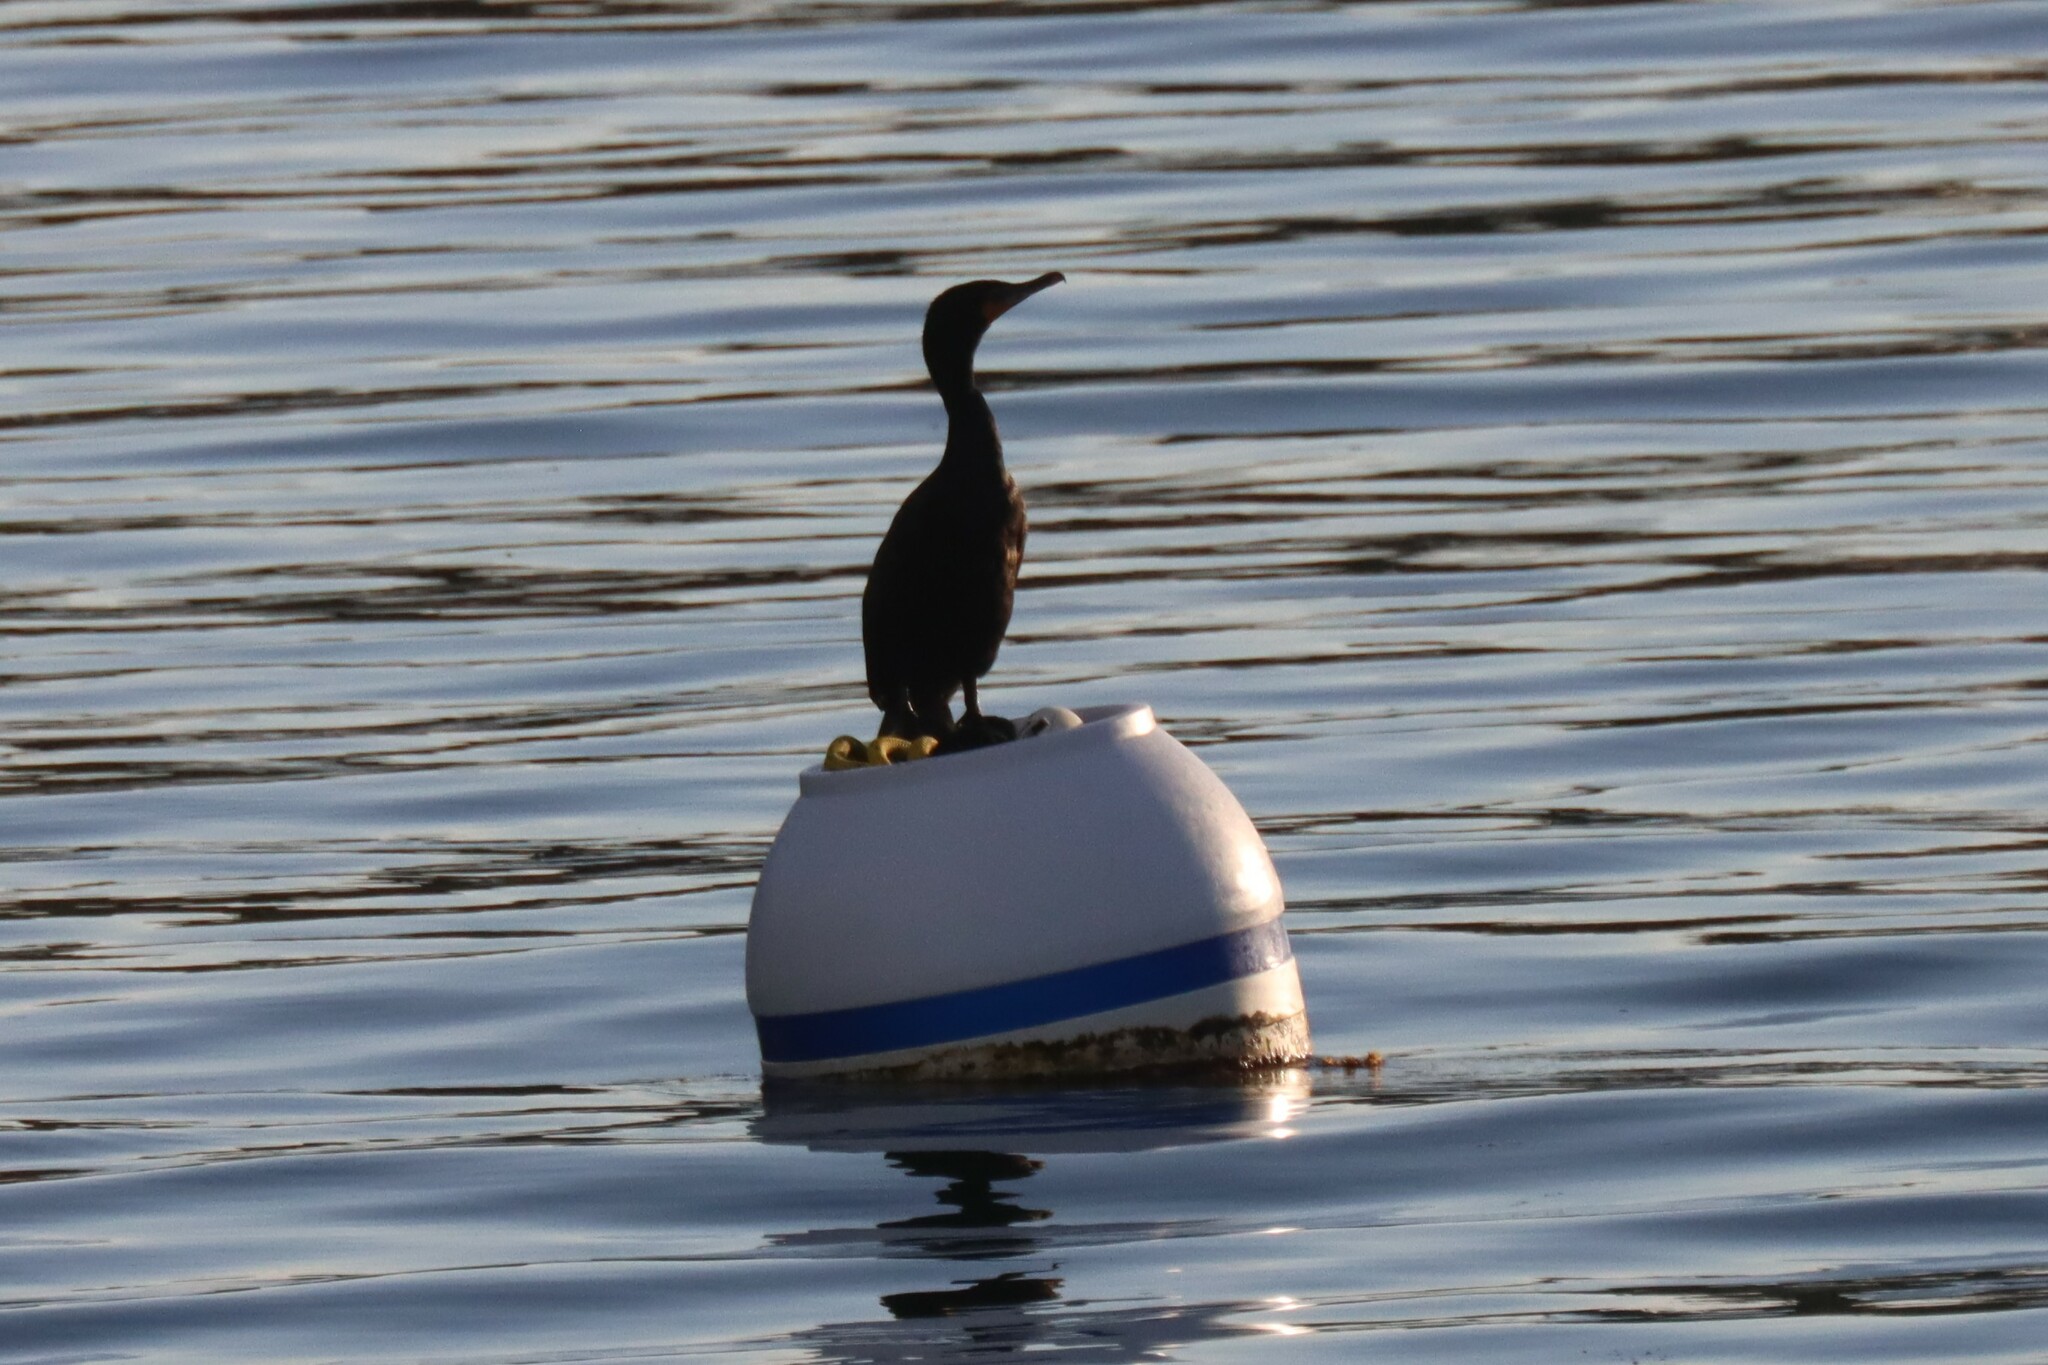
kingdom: Animalia
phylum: Chordata
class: Aves
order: Suliformes
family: Phalacrocoracidae
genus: Phalacrocorax
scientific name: Phalacrocorax auritus
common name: Double-crested cormorant
